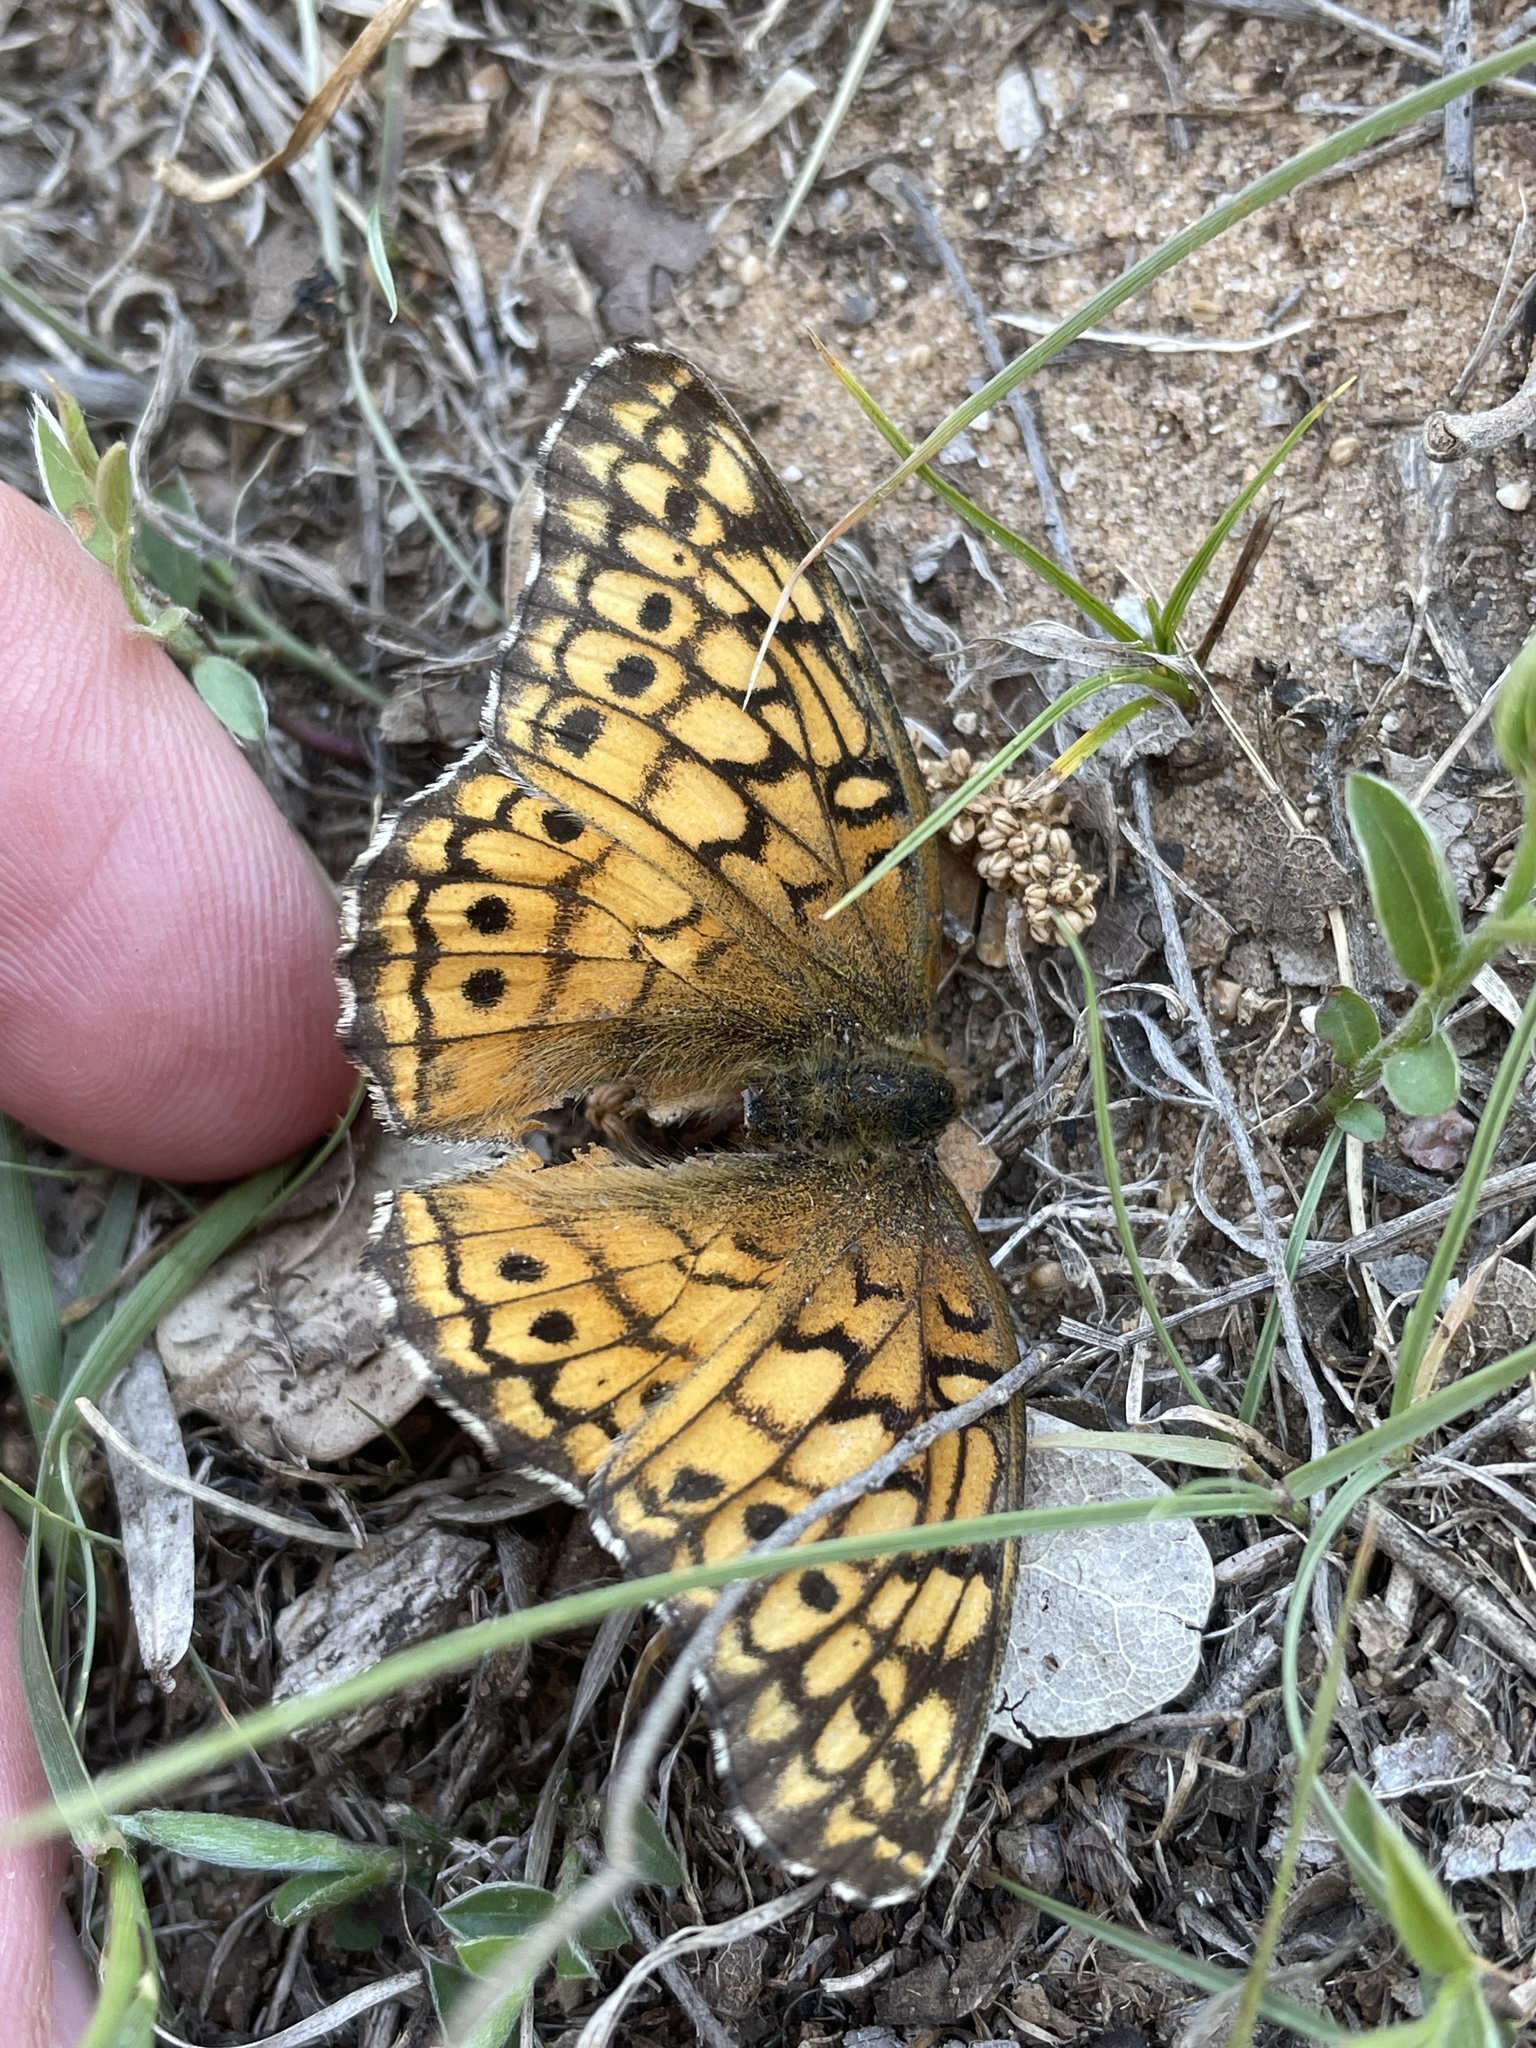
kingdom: Animalia
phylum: Arthropoda
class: Insecta
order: Lepidoptera
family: Nymphalidae
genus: Euptoieta
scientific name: Euptoieta claudia
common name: Variegated fritillary
